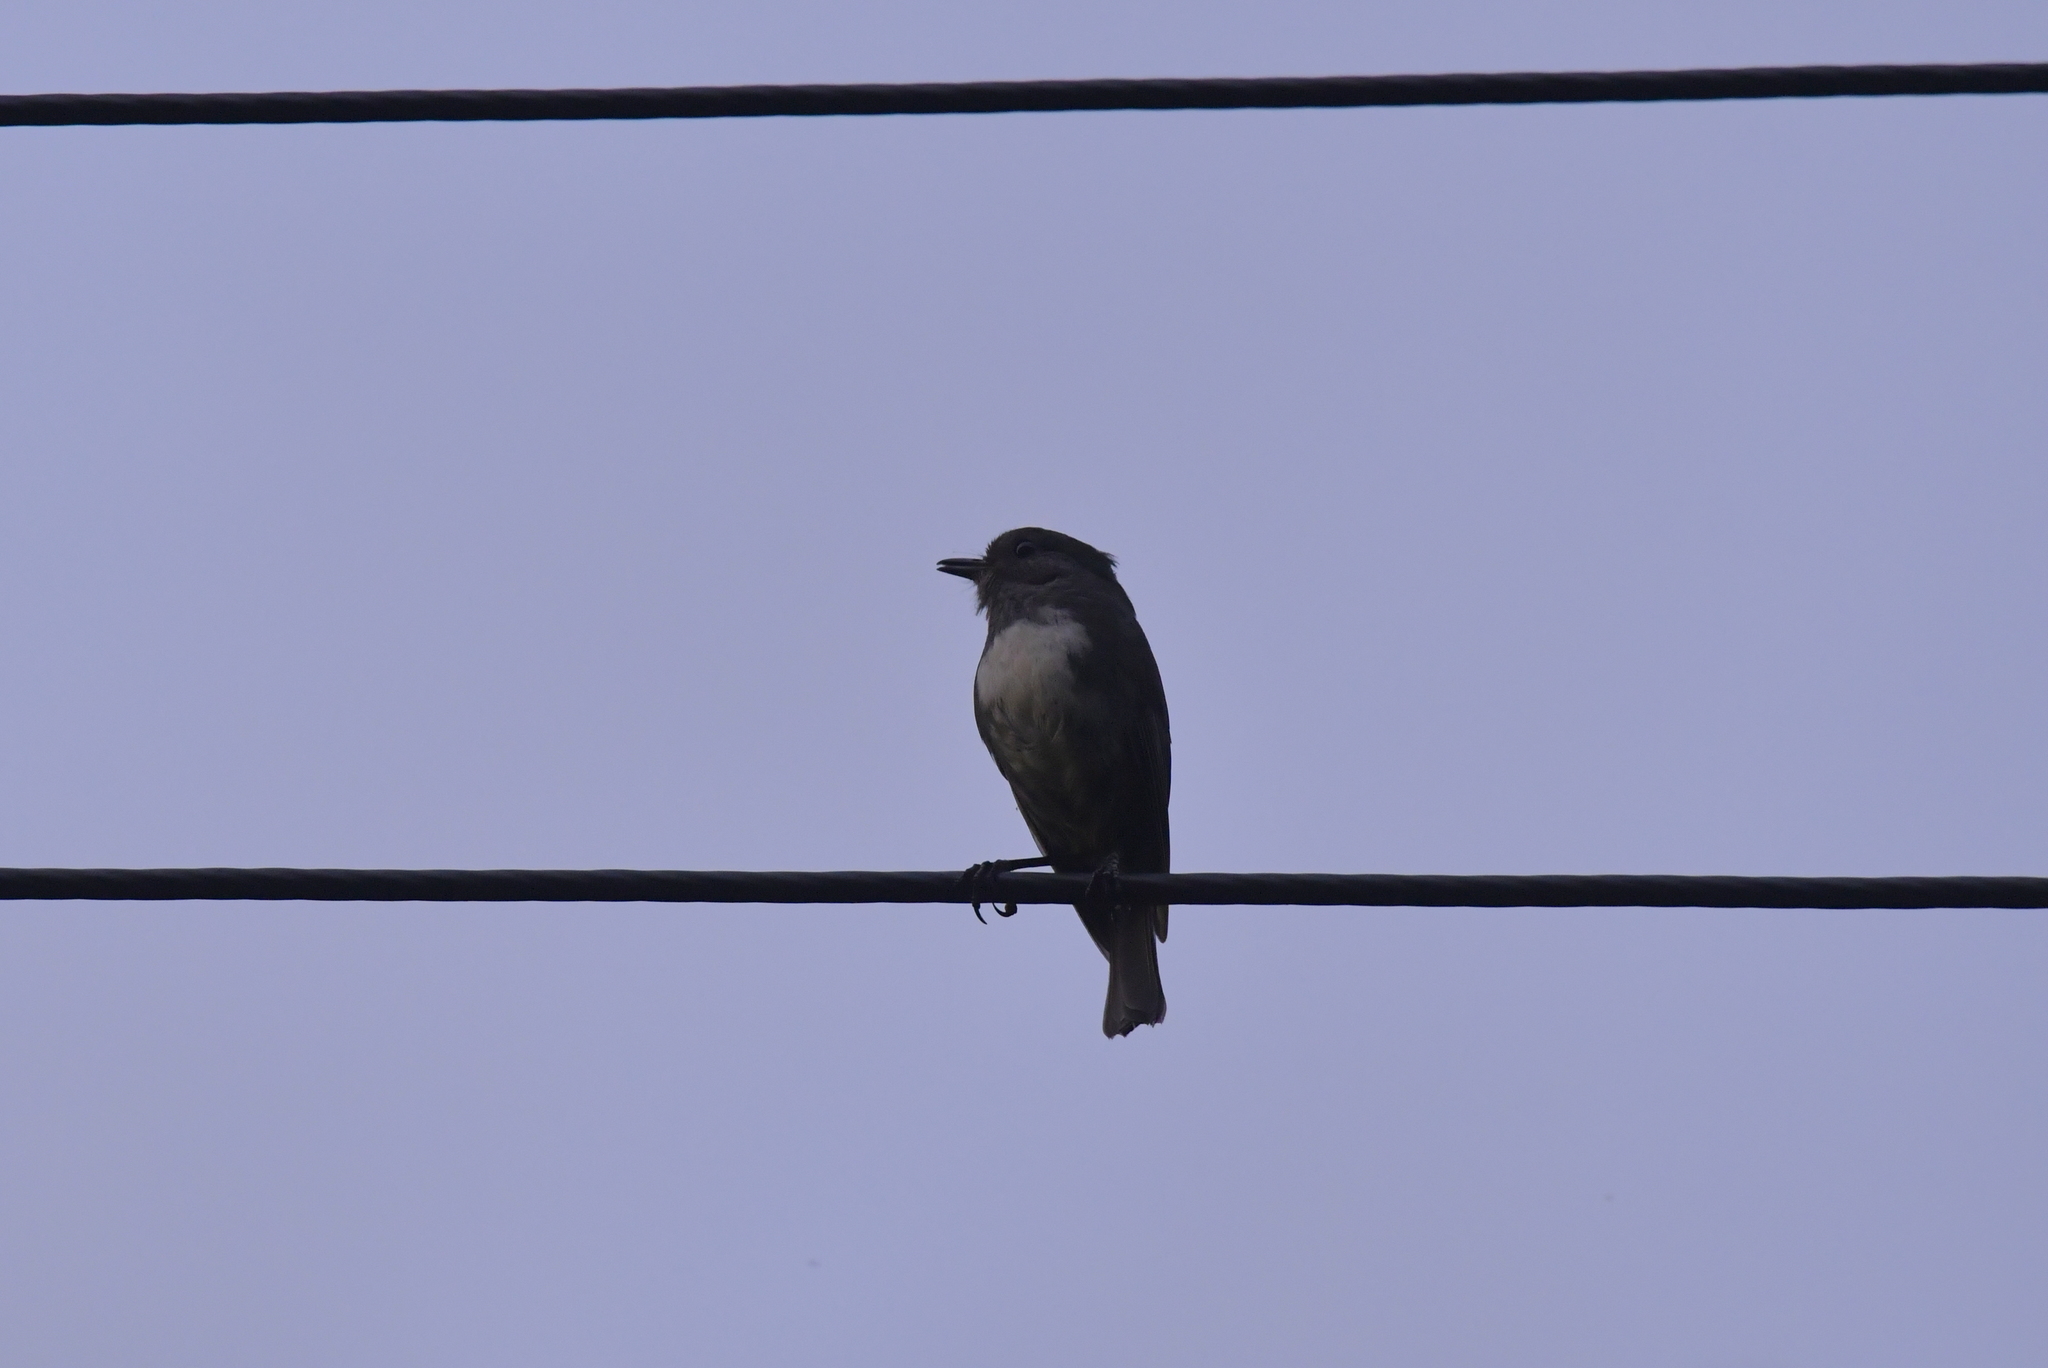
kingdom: Animalia
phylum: Chordata
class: Aves
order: Passeriformes
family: Petroicidae
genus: Petroica
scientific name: Petroica australis
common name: New zealand robin
